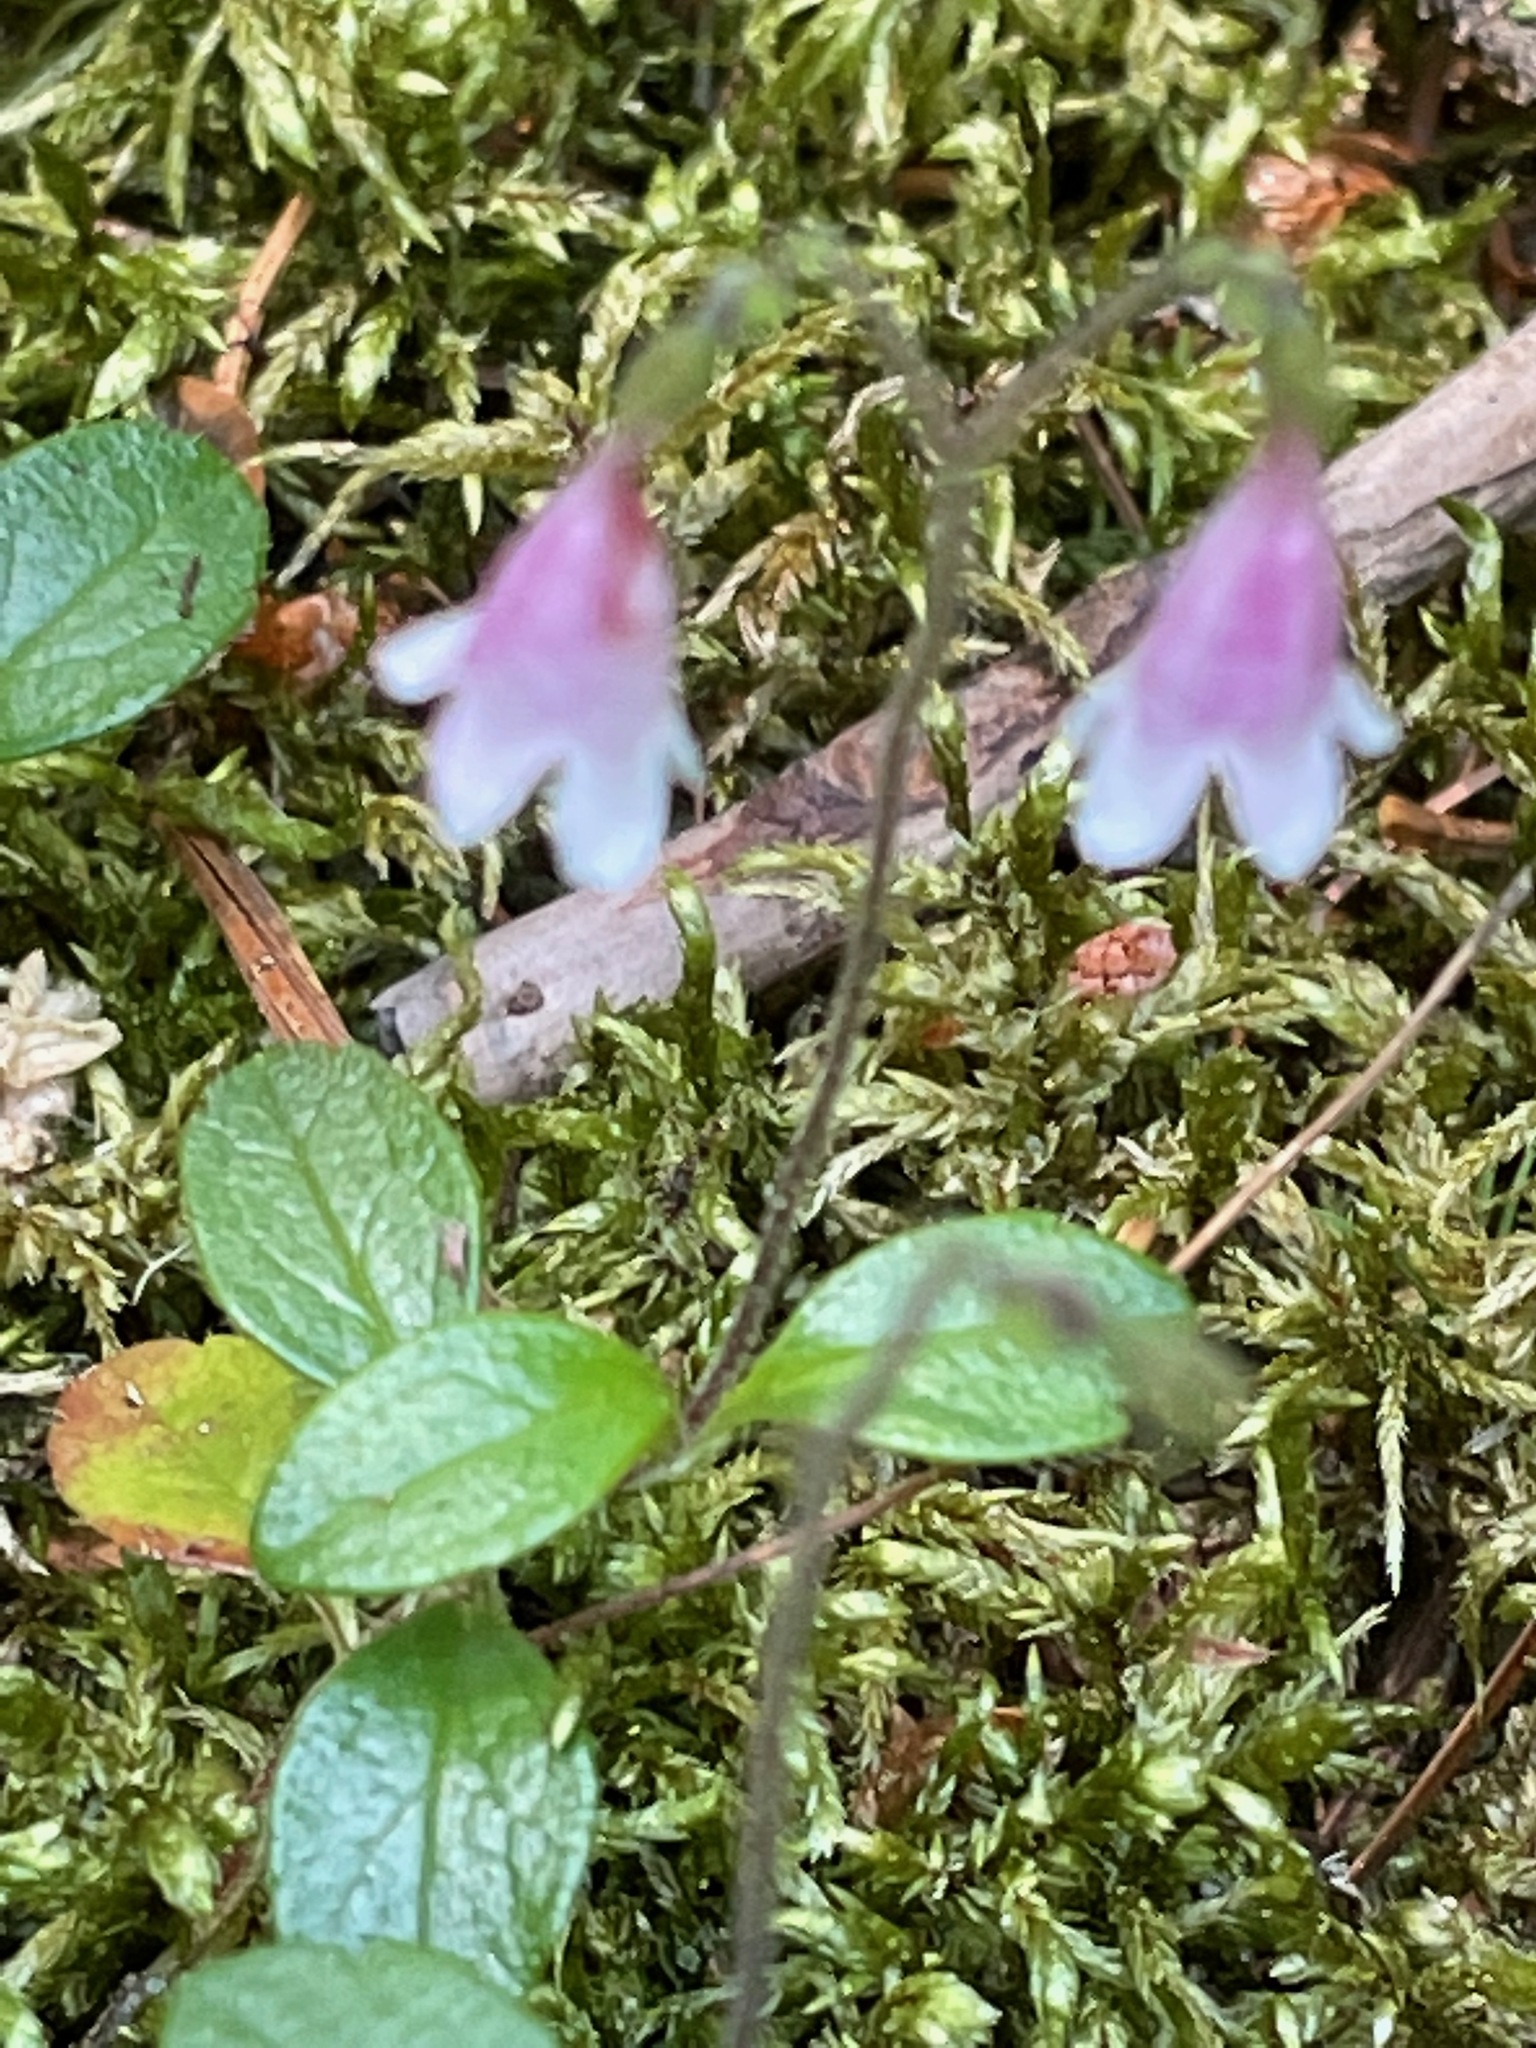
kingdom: Plantae
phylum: Tracheophyta
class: Magnoliopsida
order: Dipsacales
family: Caprifoliaceae
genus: Linnaea
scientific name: Linnaea borealis
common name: Twinflower
